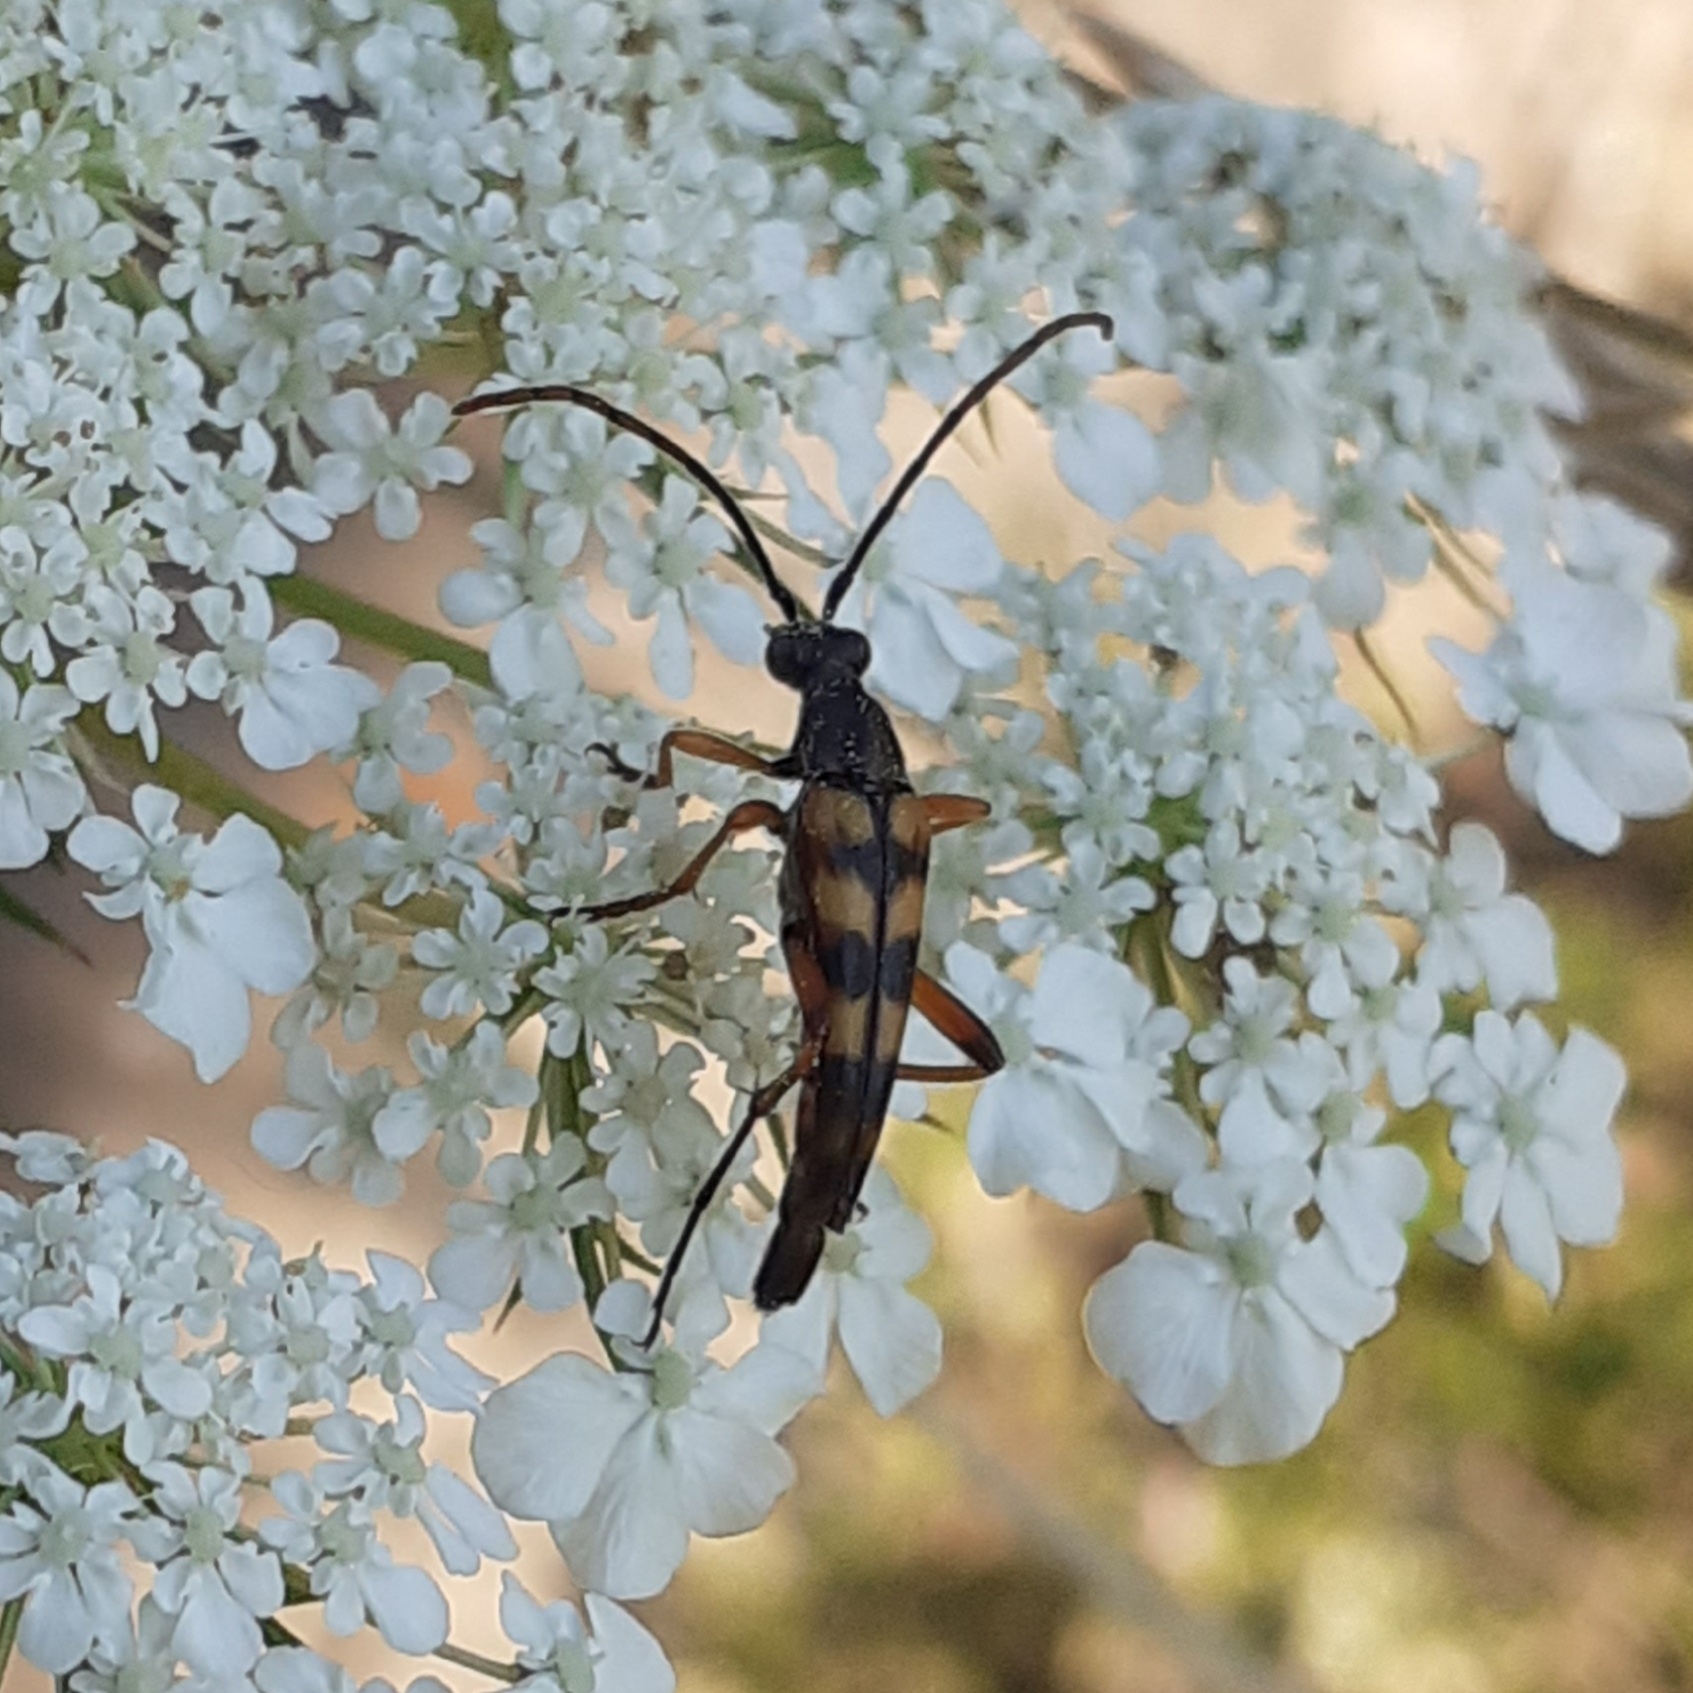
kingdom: Animalia
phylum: Arthropoda
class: Insecta
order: Coleoptera
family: Cerambycidae
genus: Strangalia
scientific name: Strangalia attenuata
